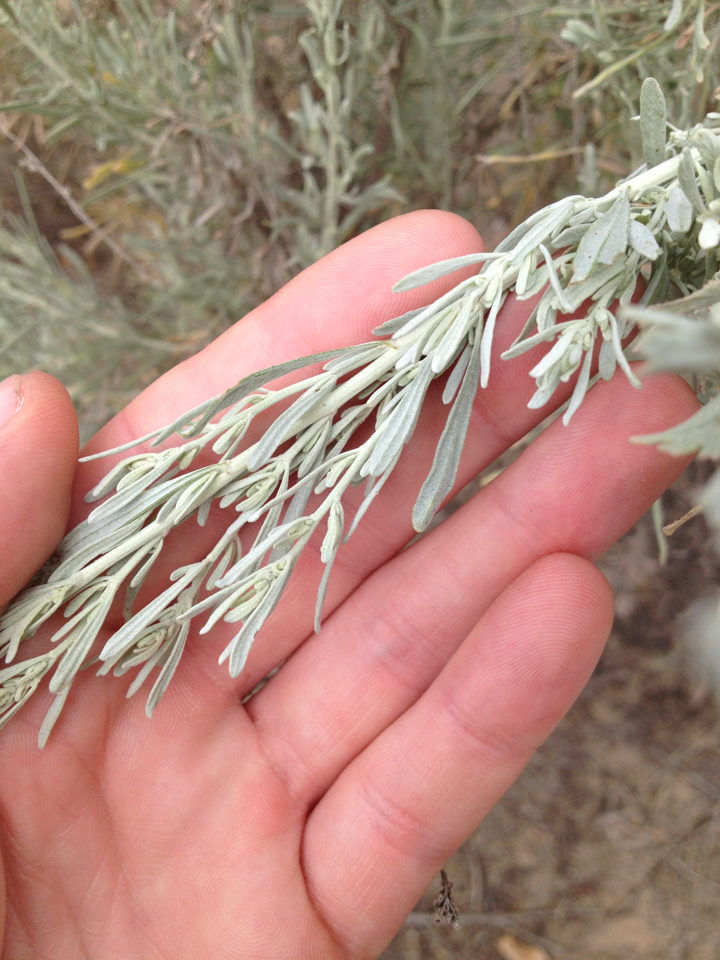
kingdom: Plantae
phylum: Tracheophyta
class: Magnoliopsida
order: Asterales
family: Asteraceae
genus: Artemisia
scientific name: Artemisia tridentata
